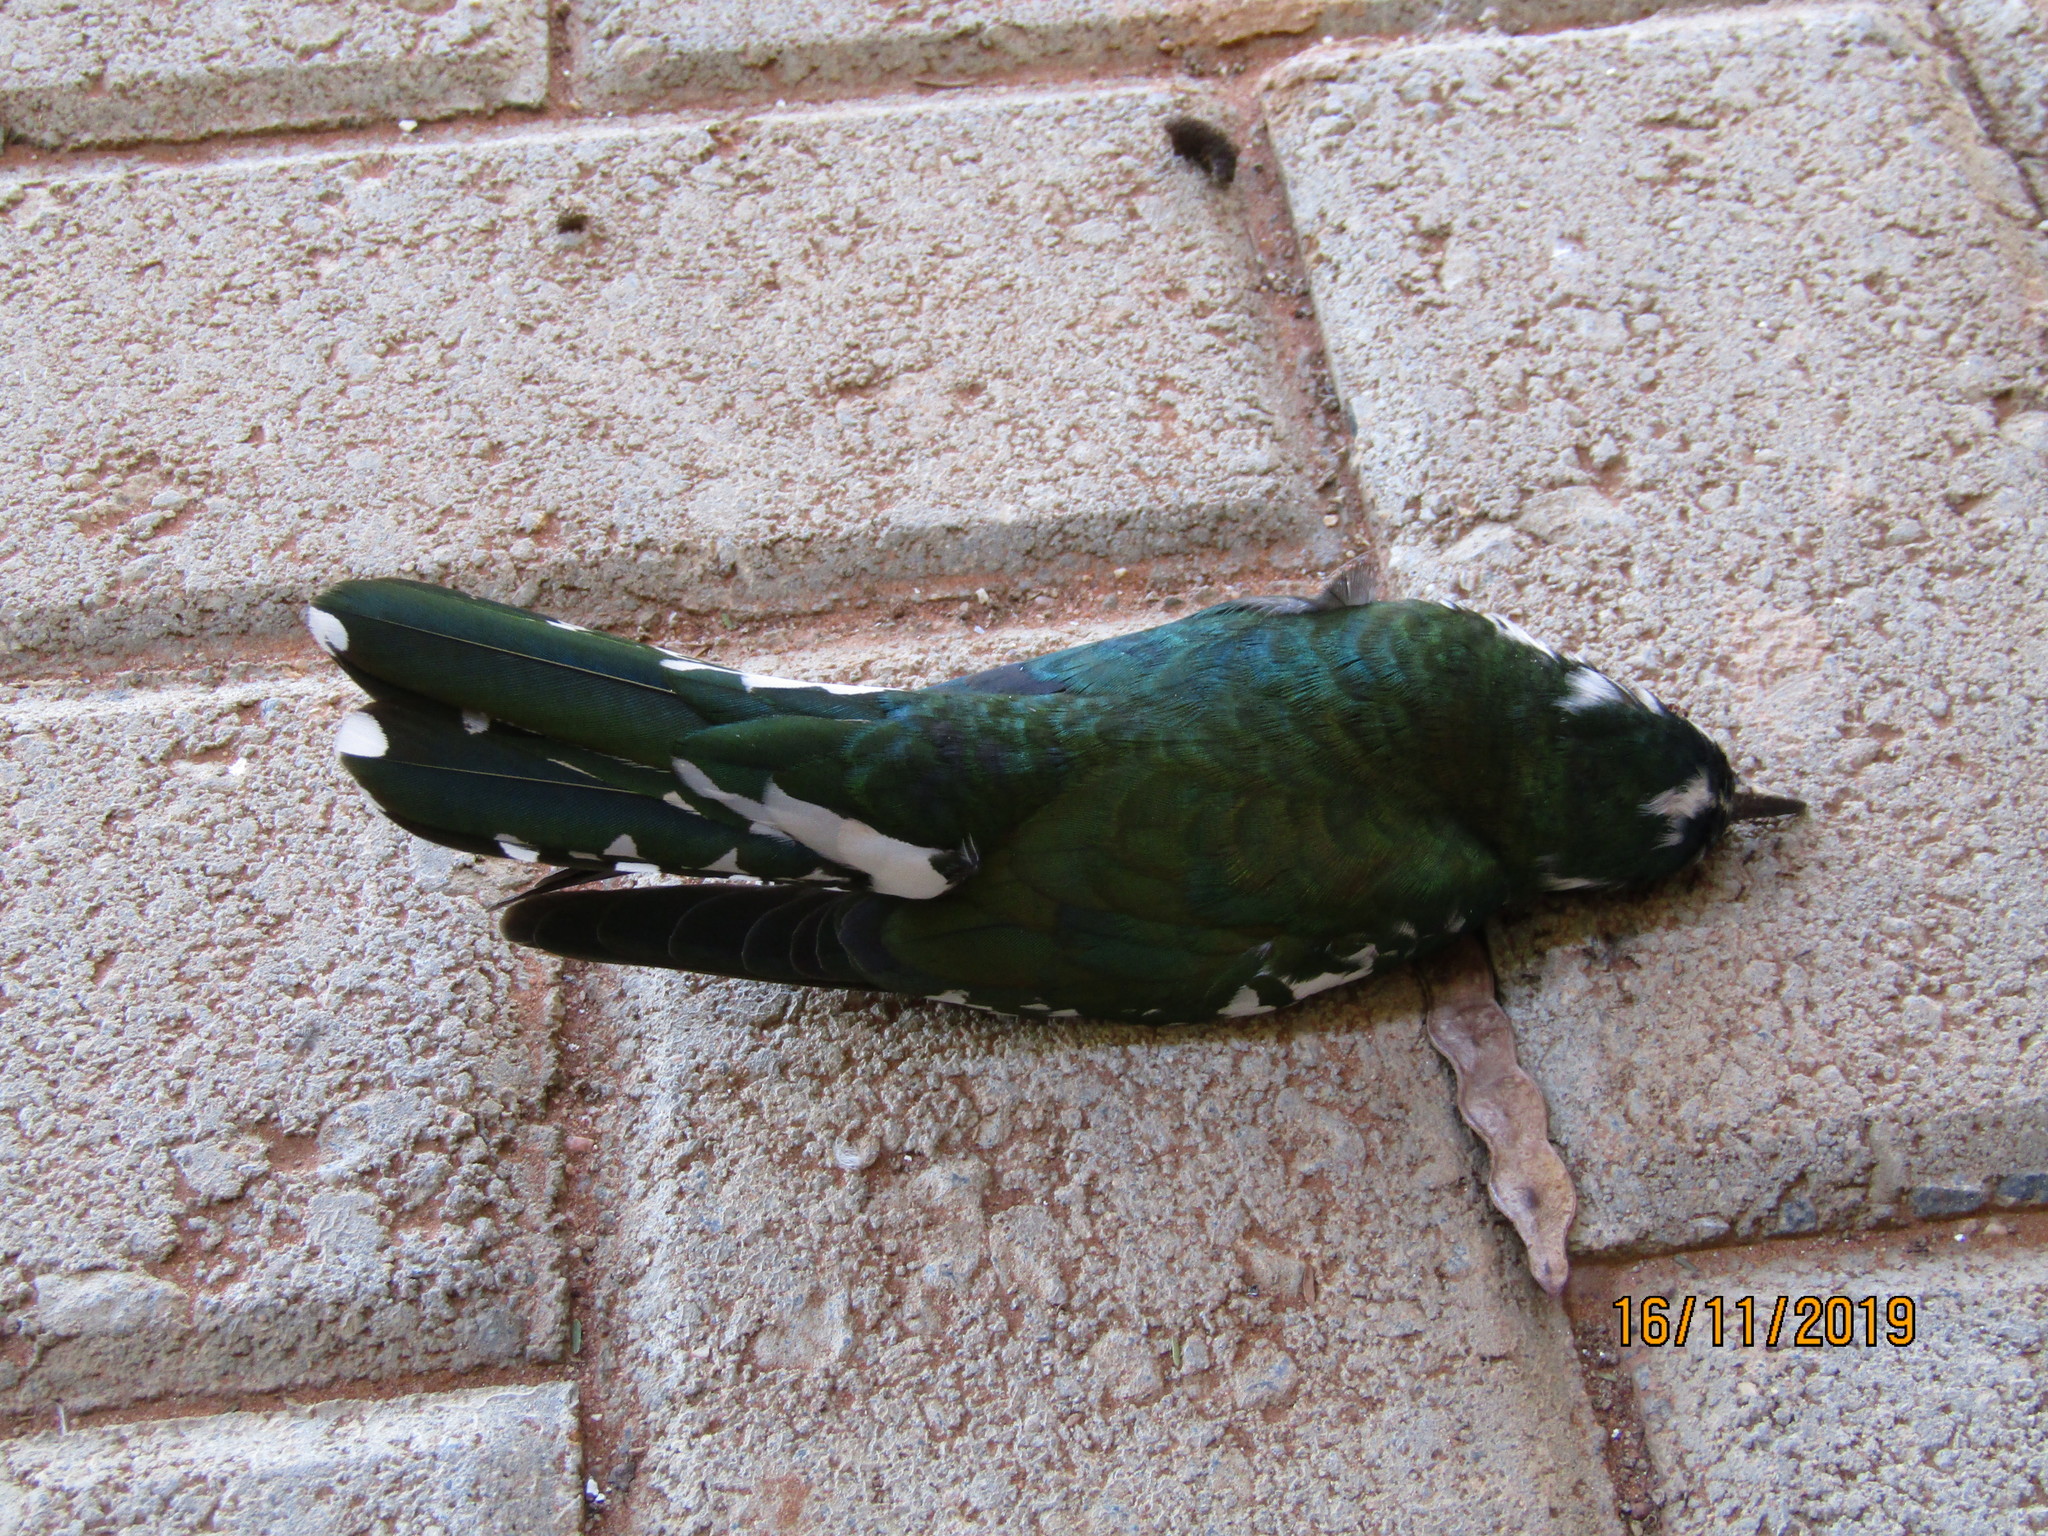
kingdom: Animalia
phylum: Chordata
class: Aves
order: Cuculiformes
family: Cuculidae
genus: Chrysococcyx
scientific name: Chrysococcyx caprius
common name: Diederik cuckoo
